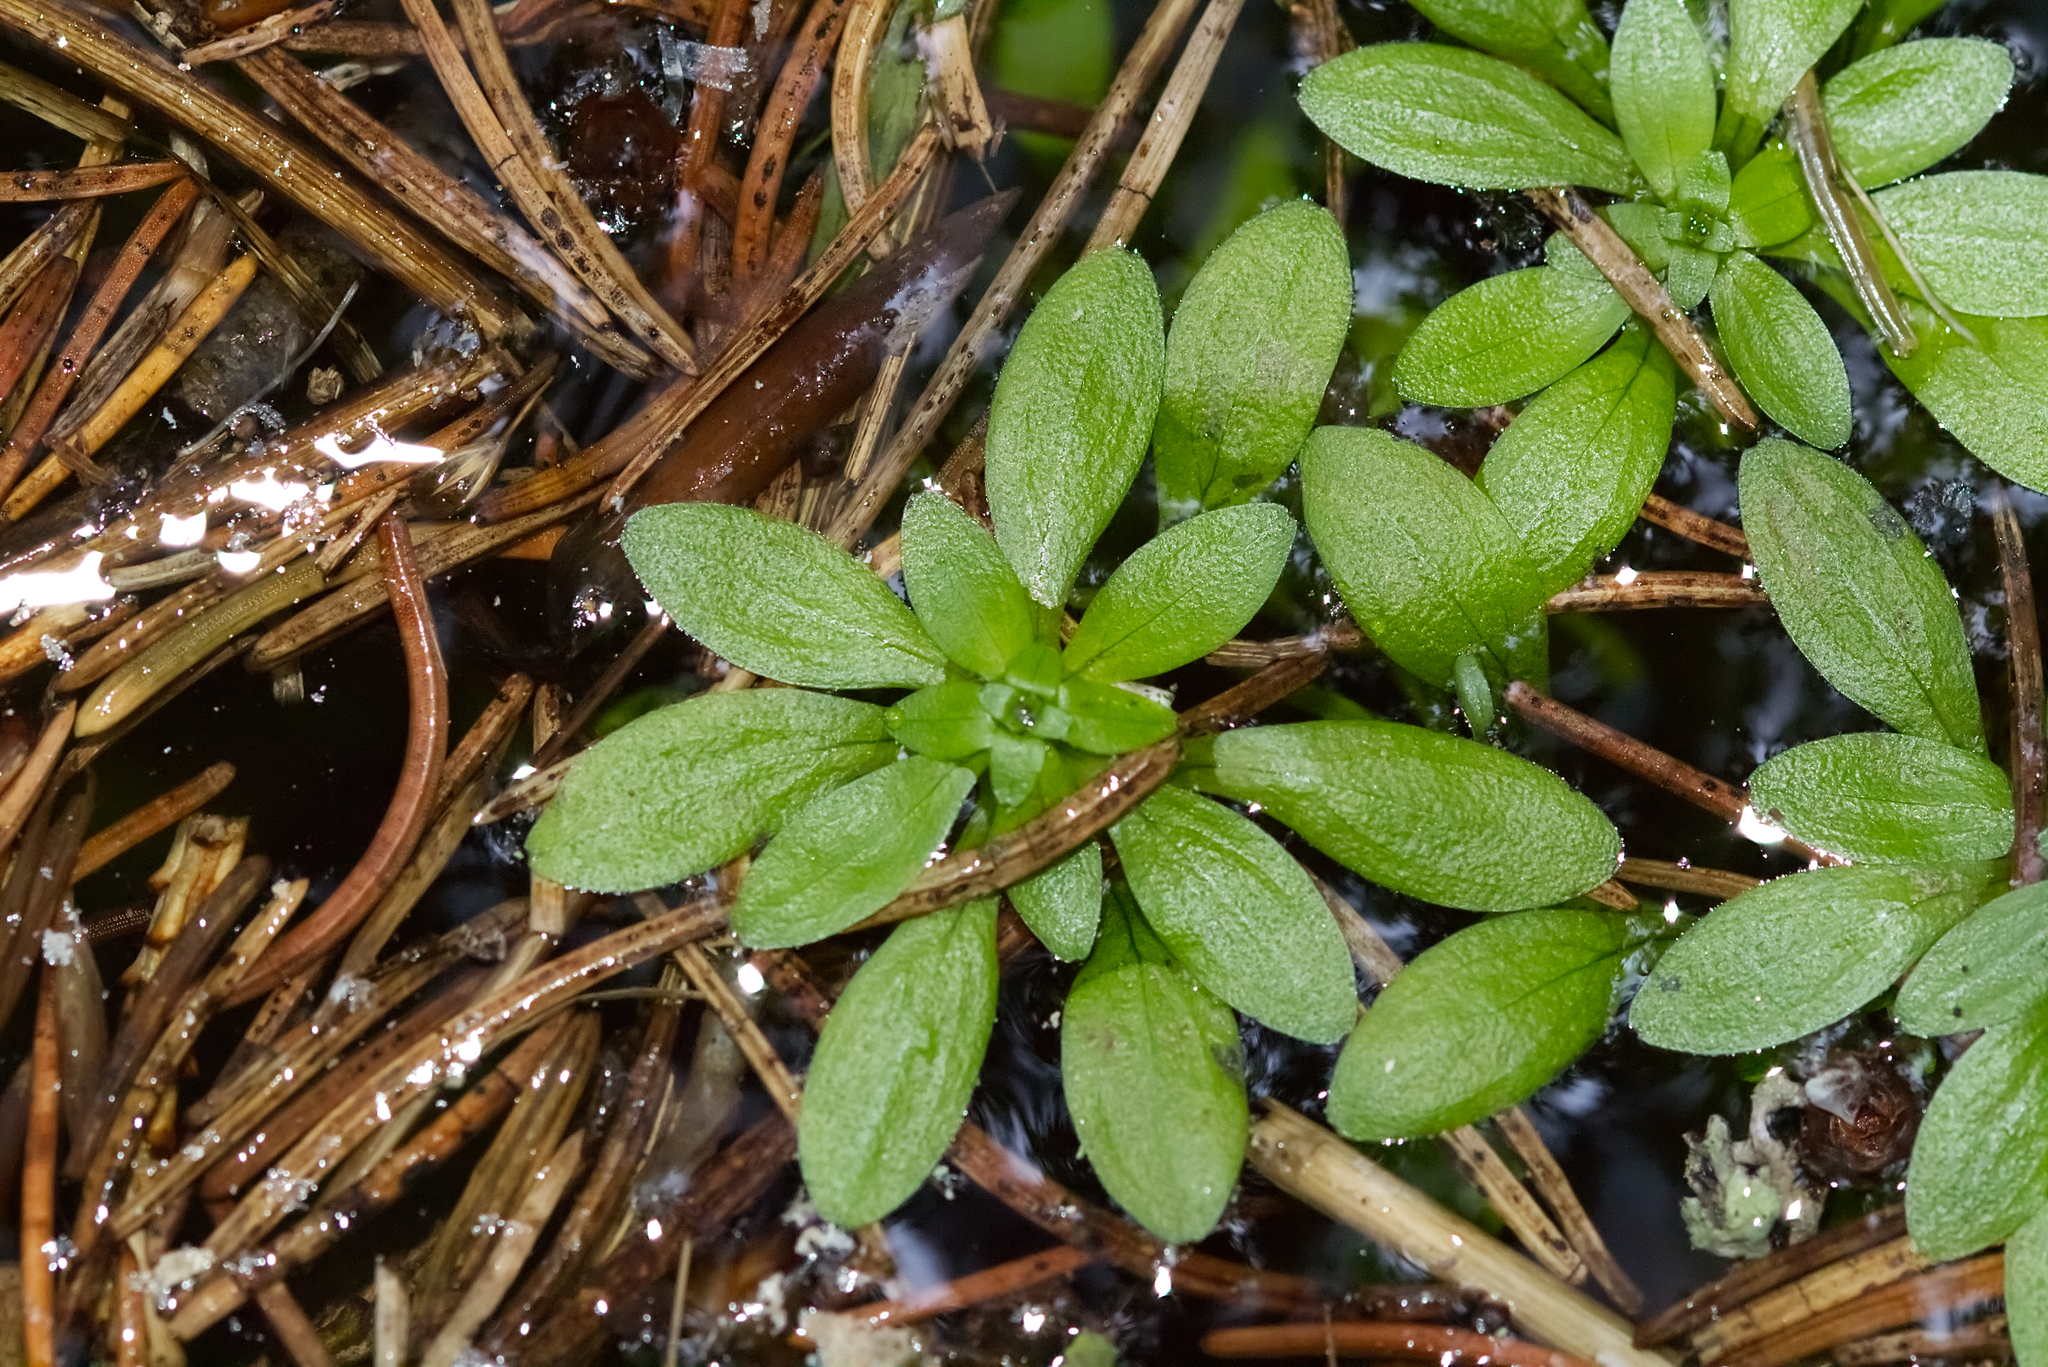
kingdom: Plantae
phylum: Tracheophyta
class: Magnoliopsida
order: Lamiales
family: Plantaginaceae
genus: Callitriche
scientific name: Callitriche palustris
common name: Spring water-starwort
